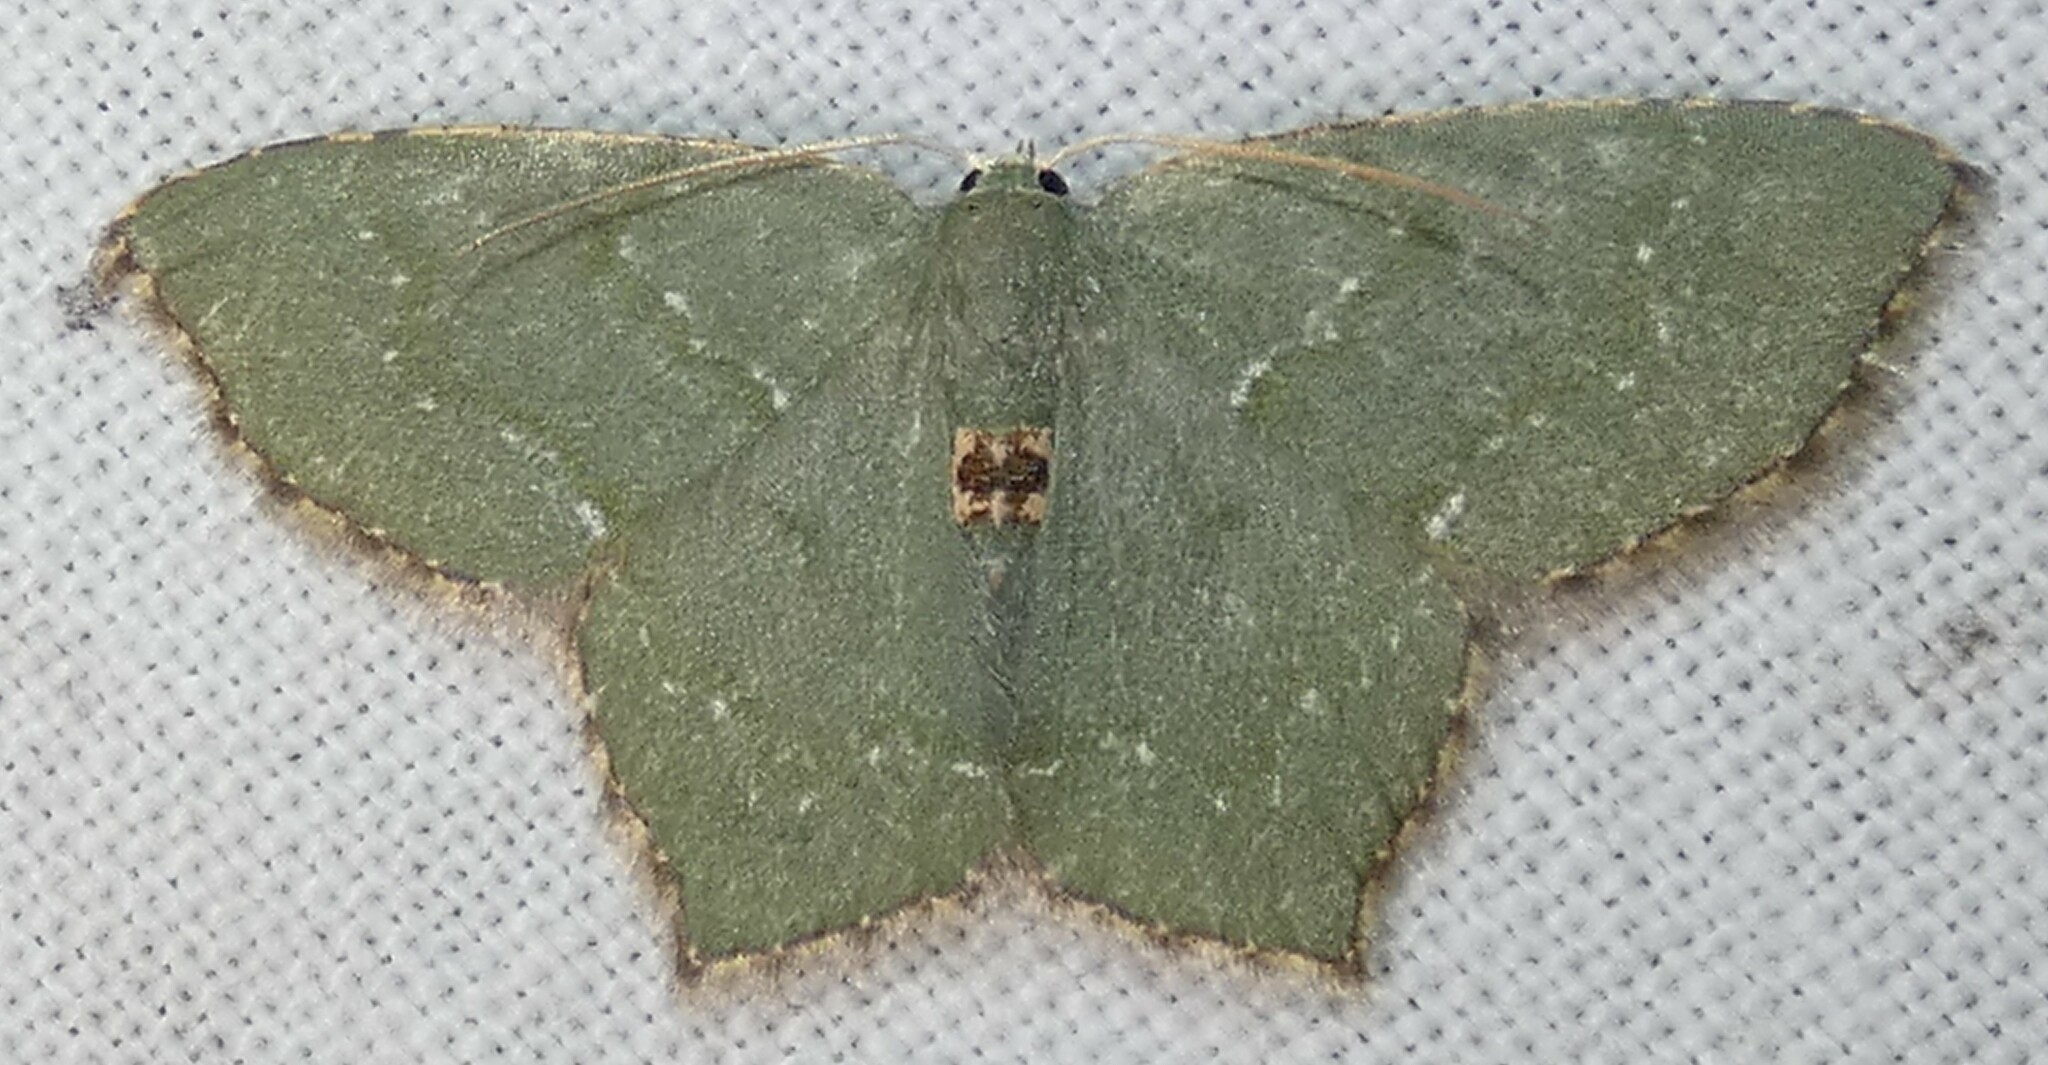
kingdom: Animalia
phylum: Arthropoda
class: Insecta
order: Lepidoptera
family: Geometridae
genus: Chloropteryx
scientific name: Chloropteryx tepperaria
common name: Angle winged emerald moth
